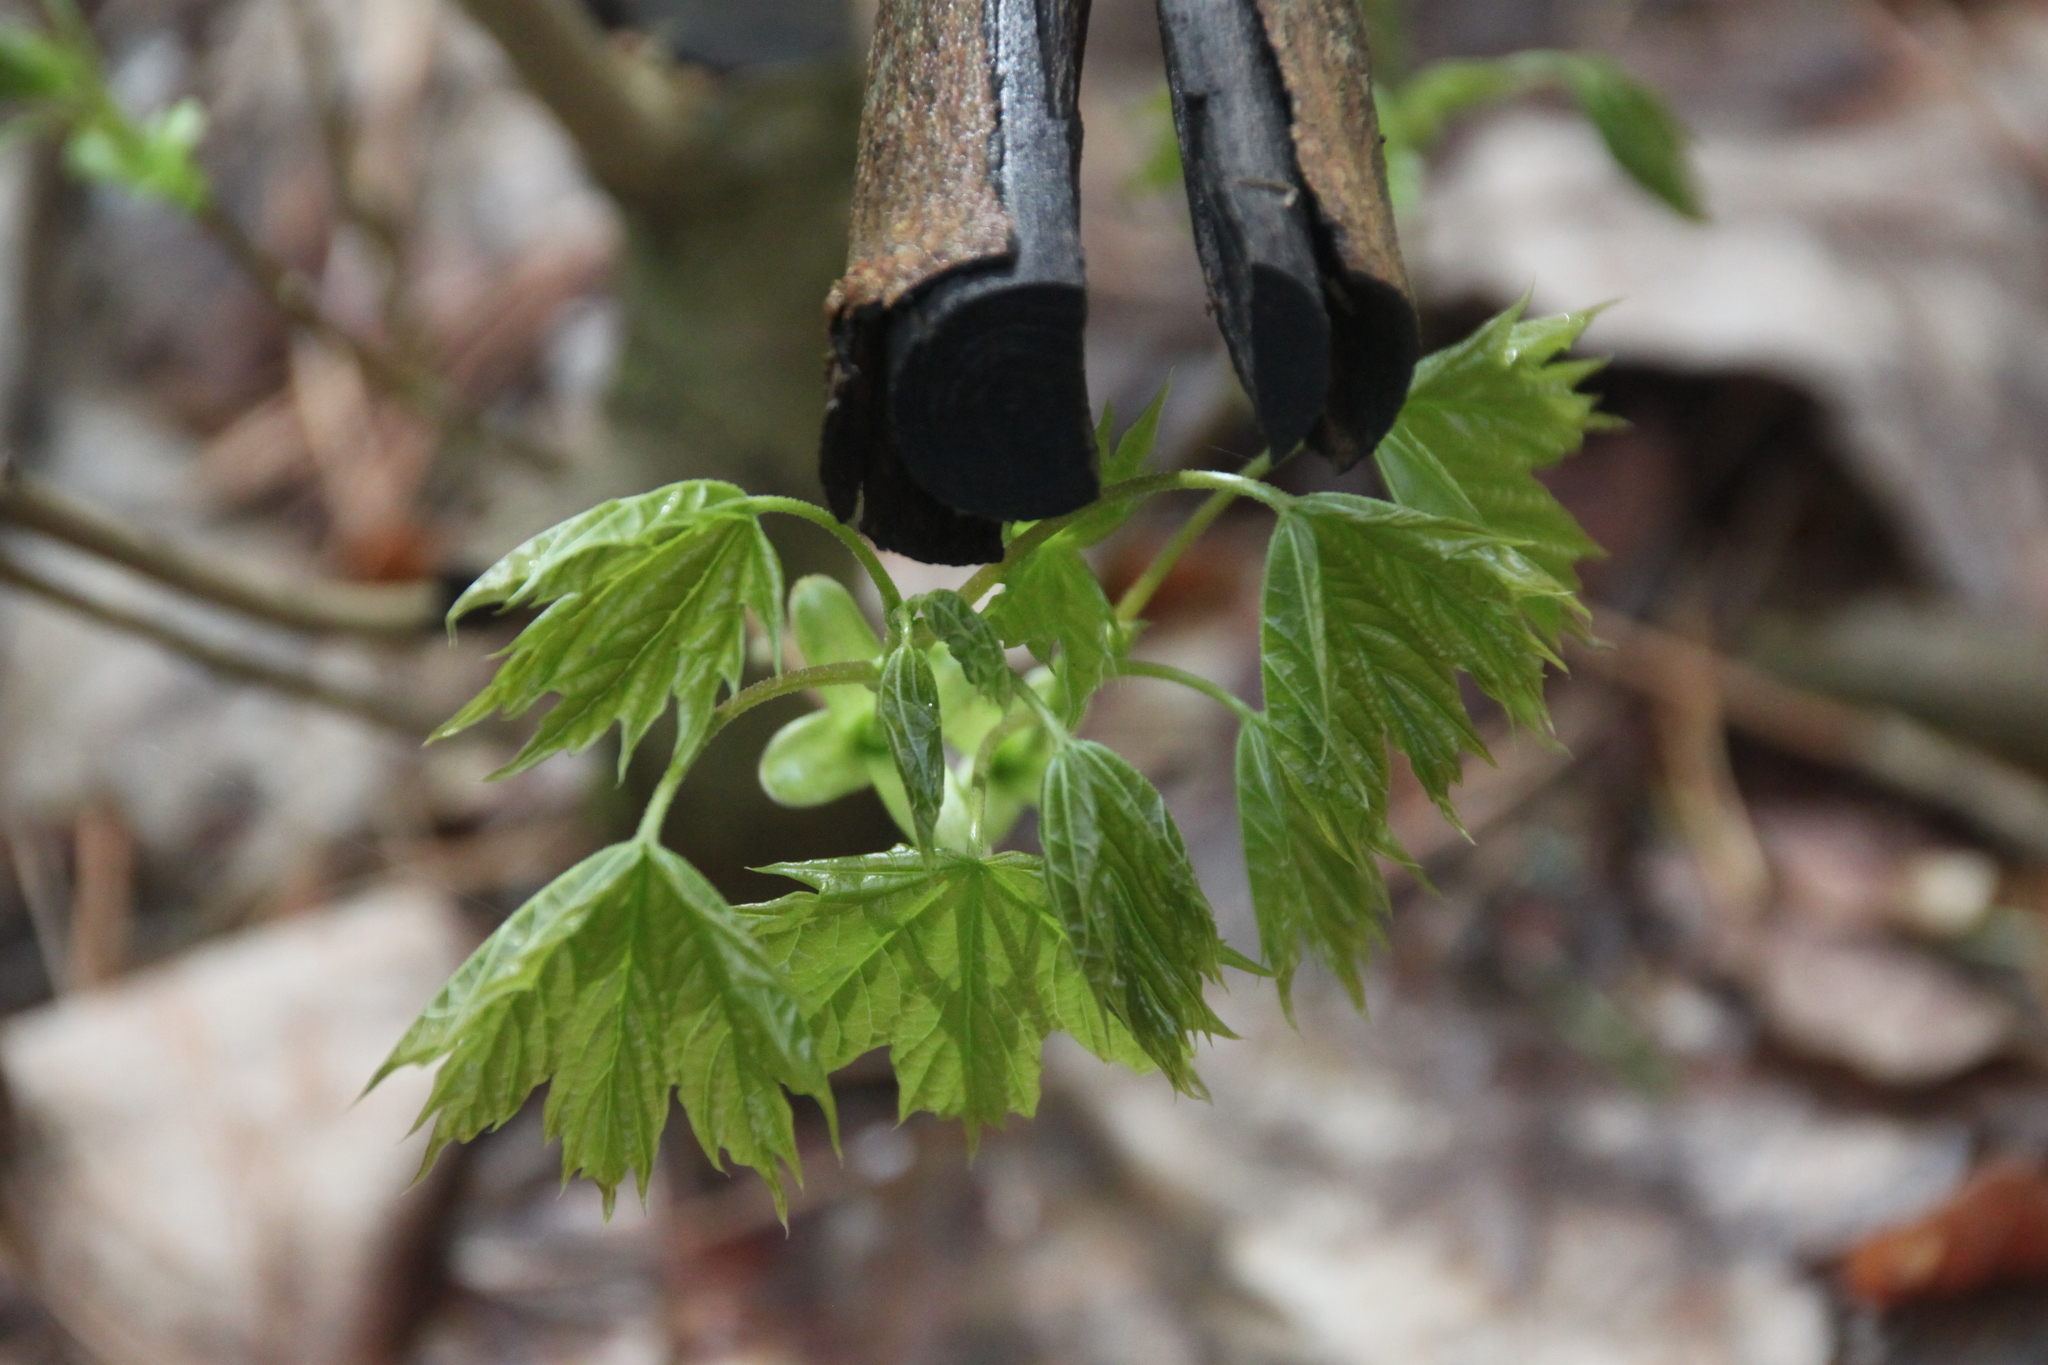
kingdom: Plantae
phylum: Tracheophyta
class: Magnoliopsida
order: Sapindales
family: Sapindaceae
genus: Acer
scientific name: Acer platanoides
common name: Norway maple
